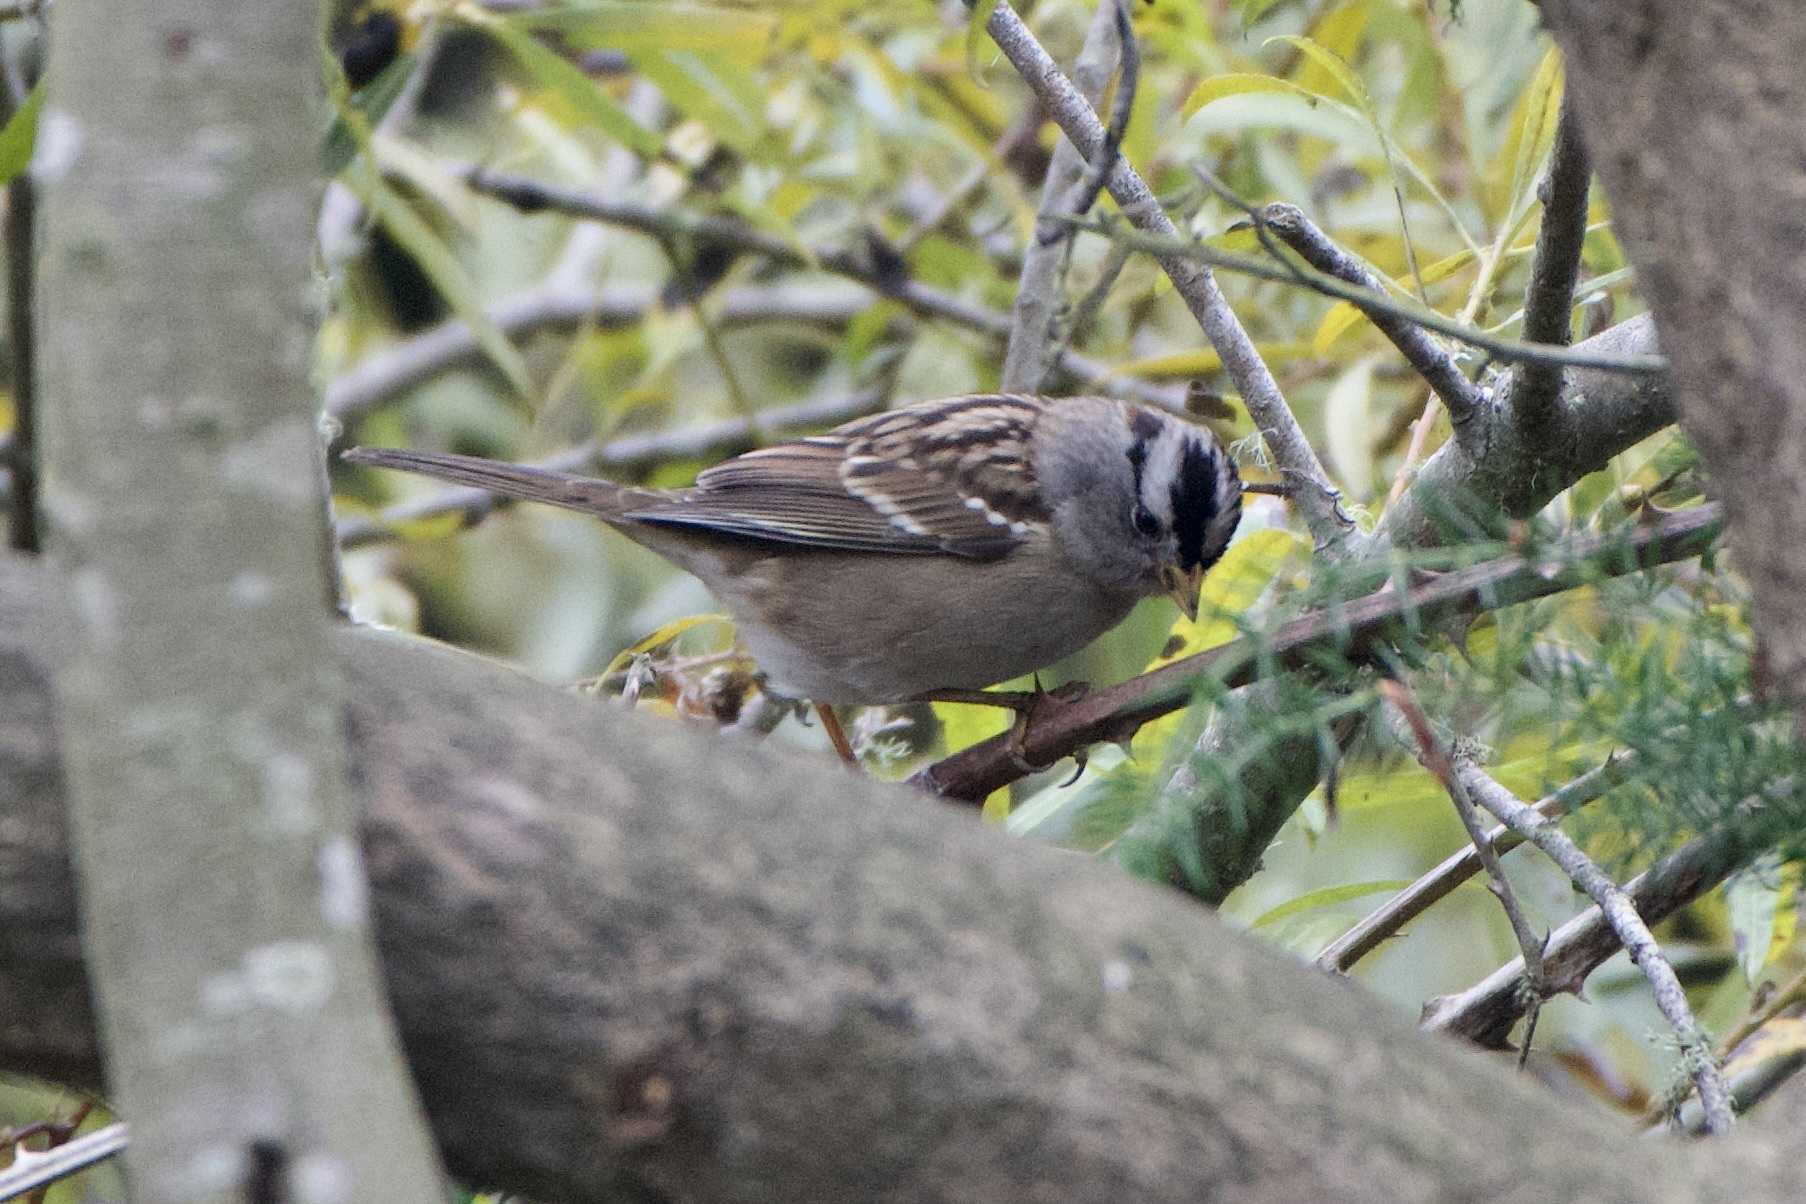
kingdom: Animalia
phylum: Chordata
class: Aves
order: Passeriformes
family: Passerellidae
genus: Zonotrichia
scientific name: Zonotrichia leucophrys
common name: White-crowned sparrow
